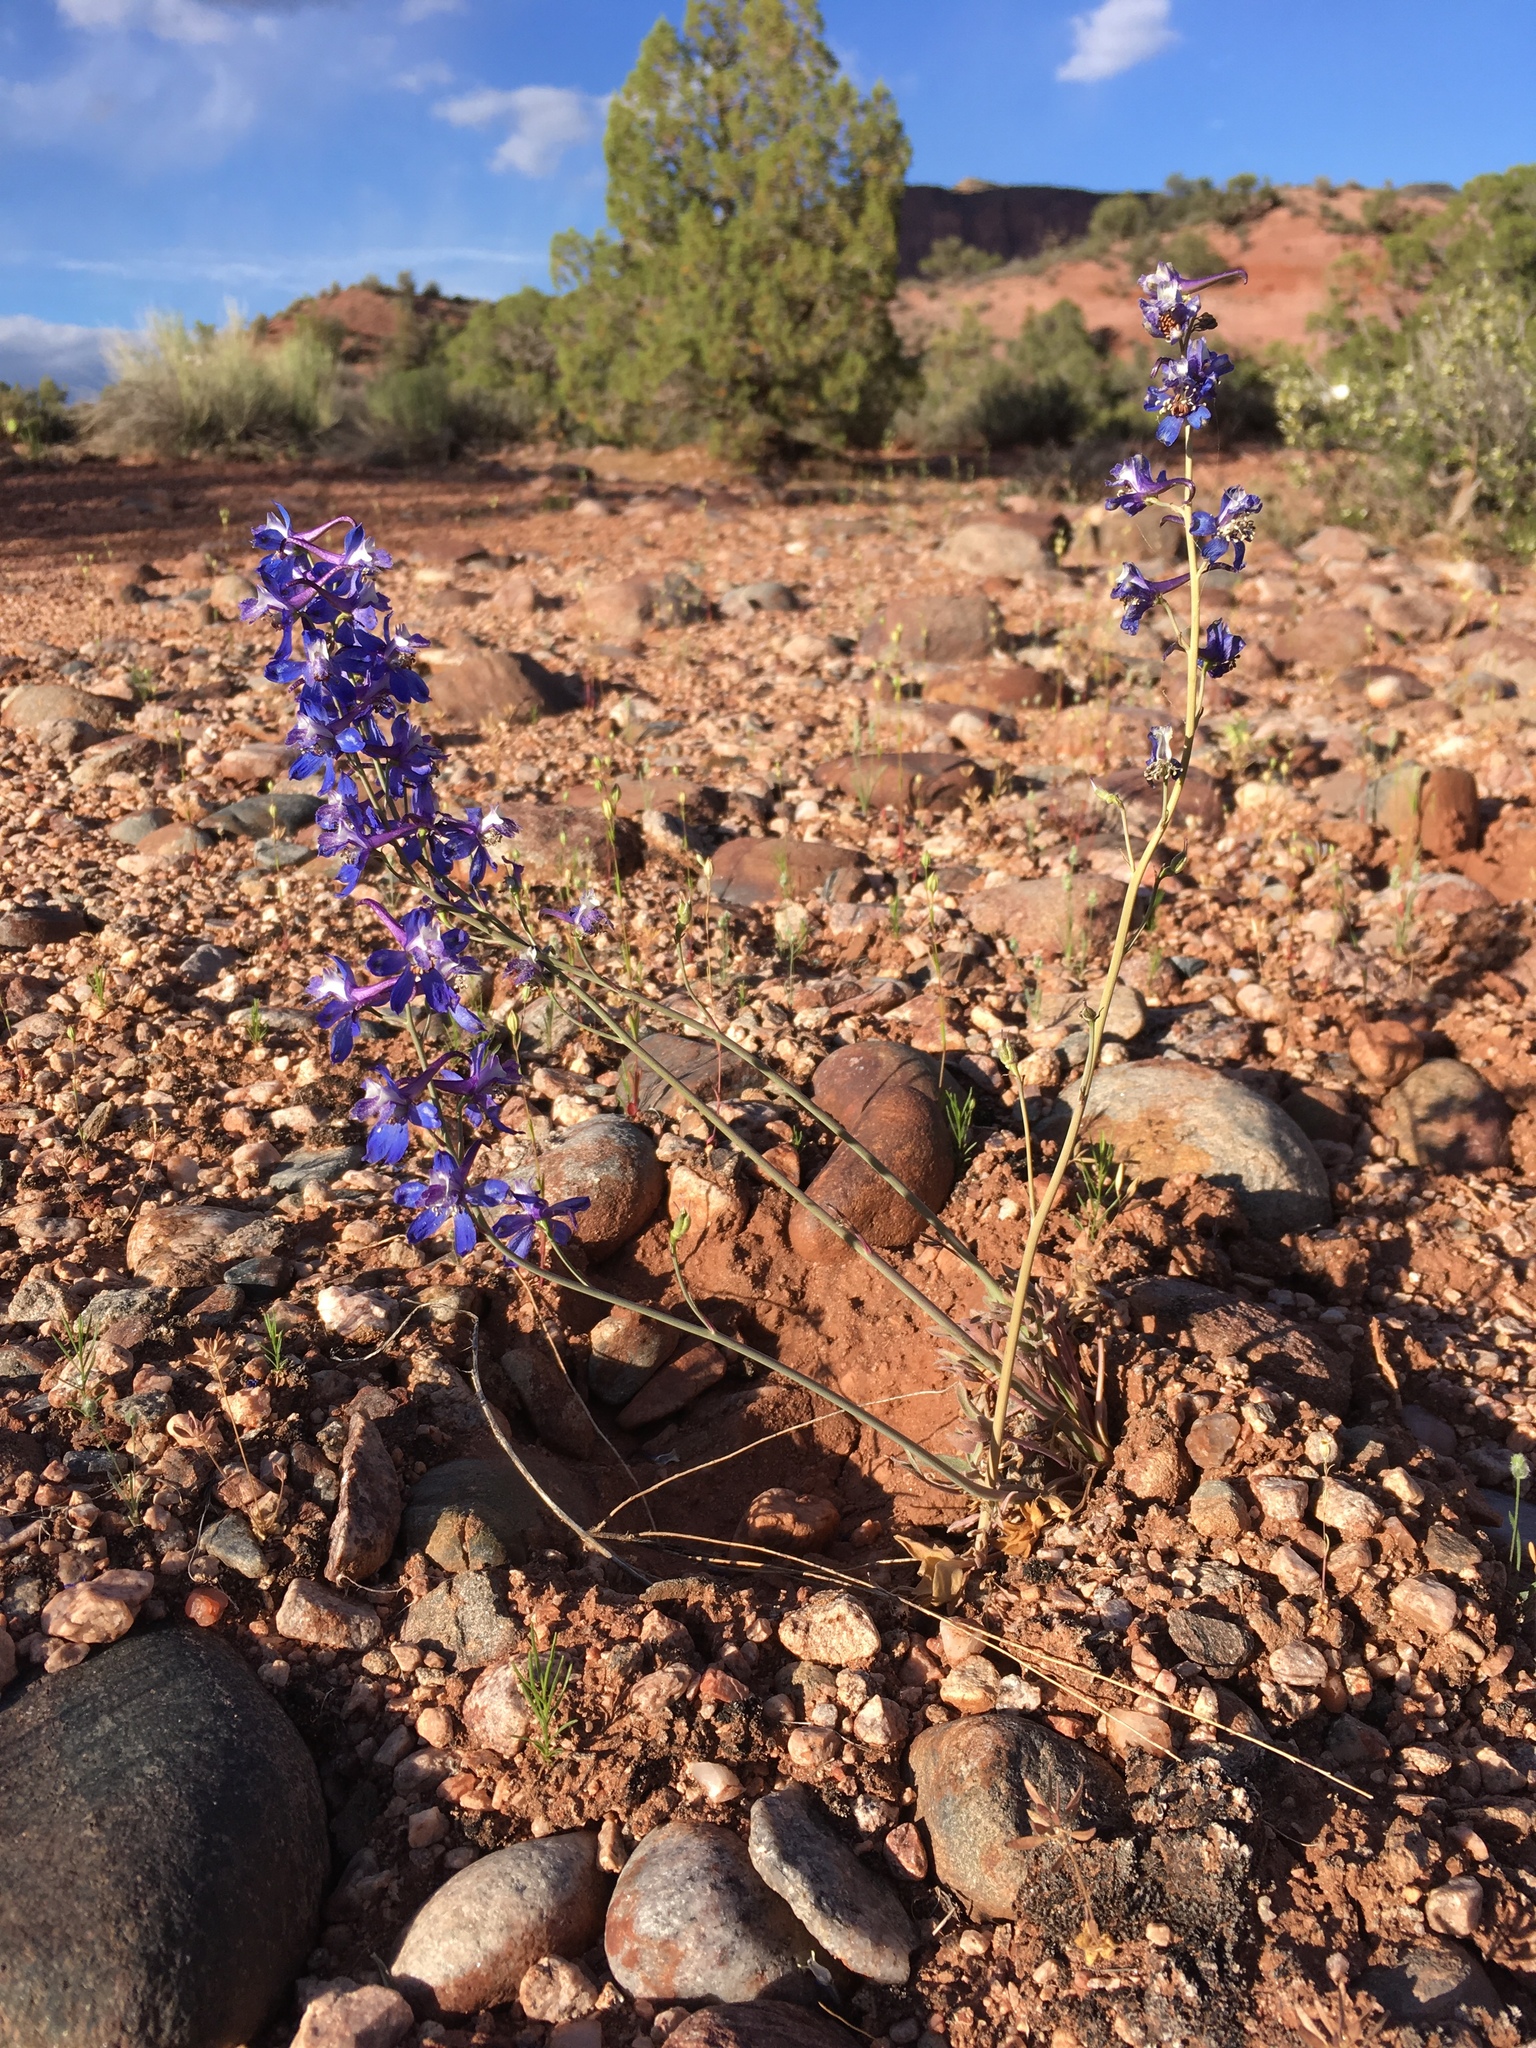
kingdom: Plantae
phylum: Tracheophyta
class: Magnoliopsida
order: Ranunculales
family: Ranunculaceae
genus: Delphinium
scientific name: Delphinium scaposum
